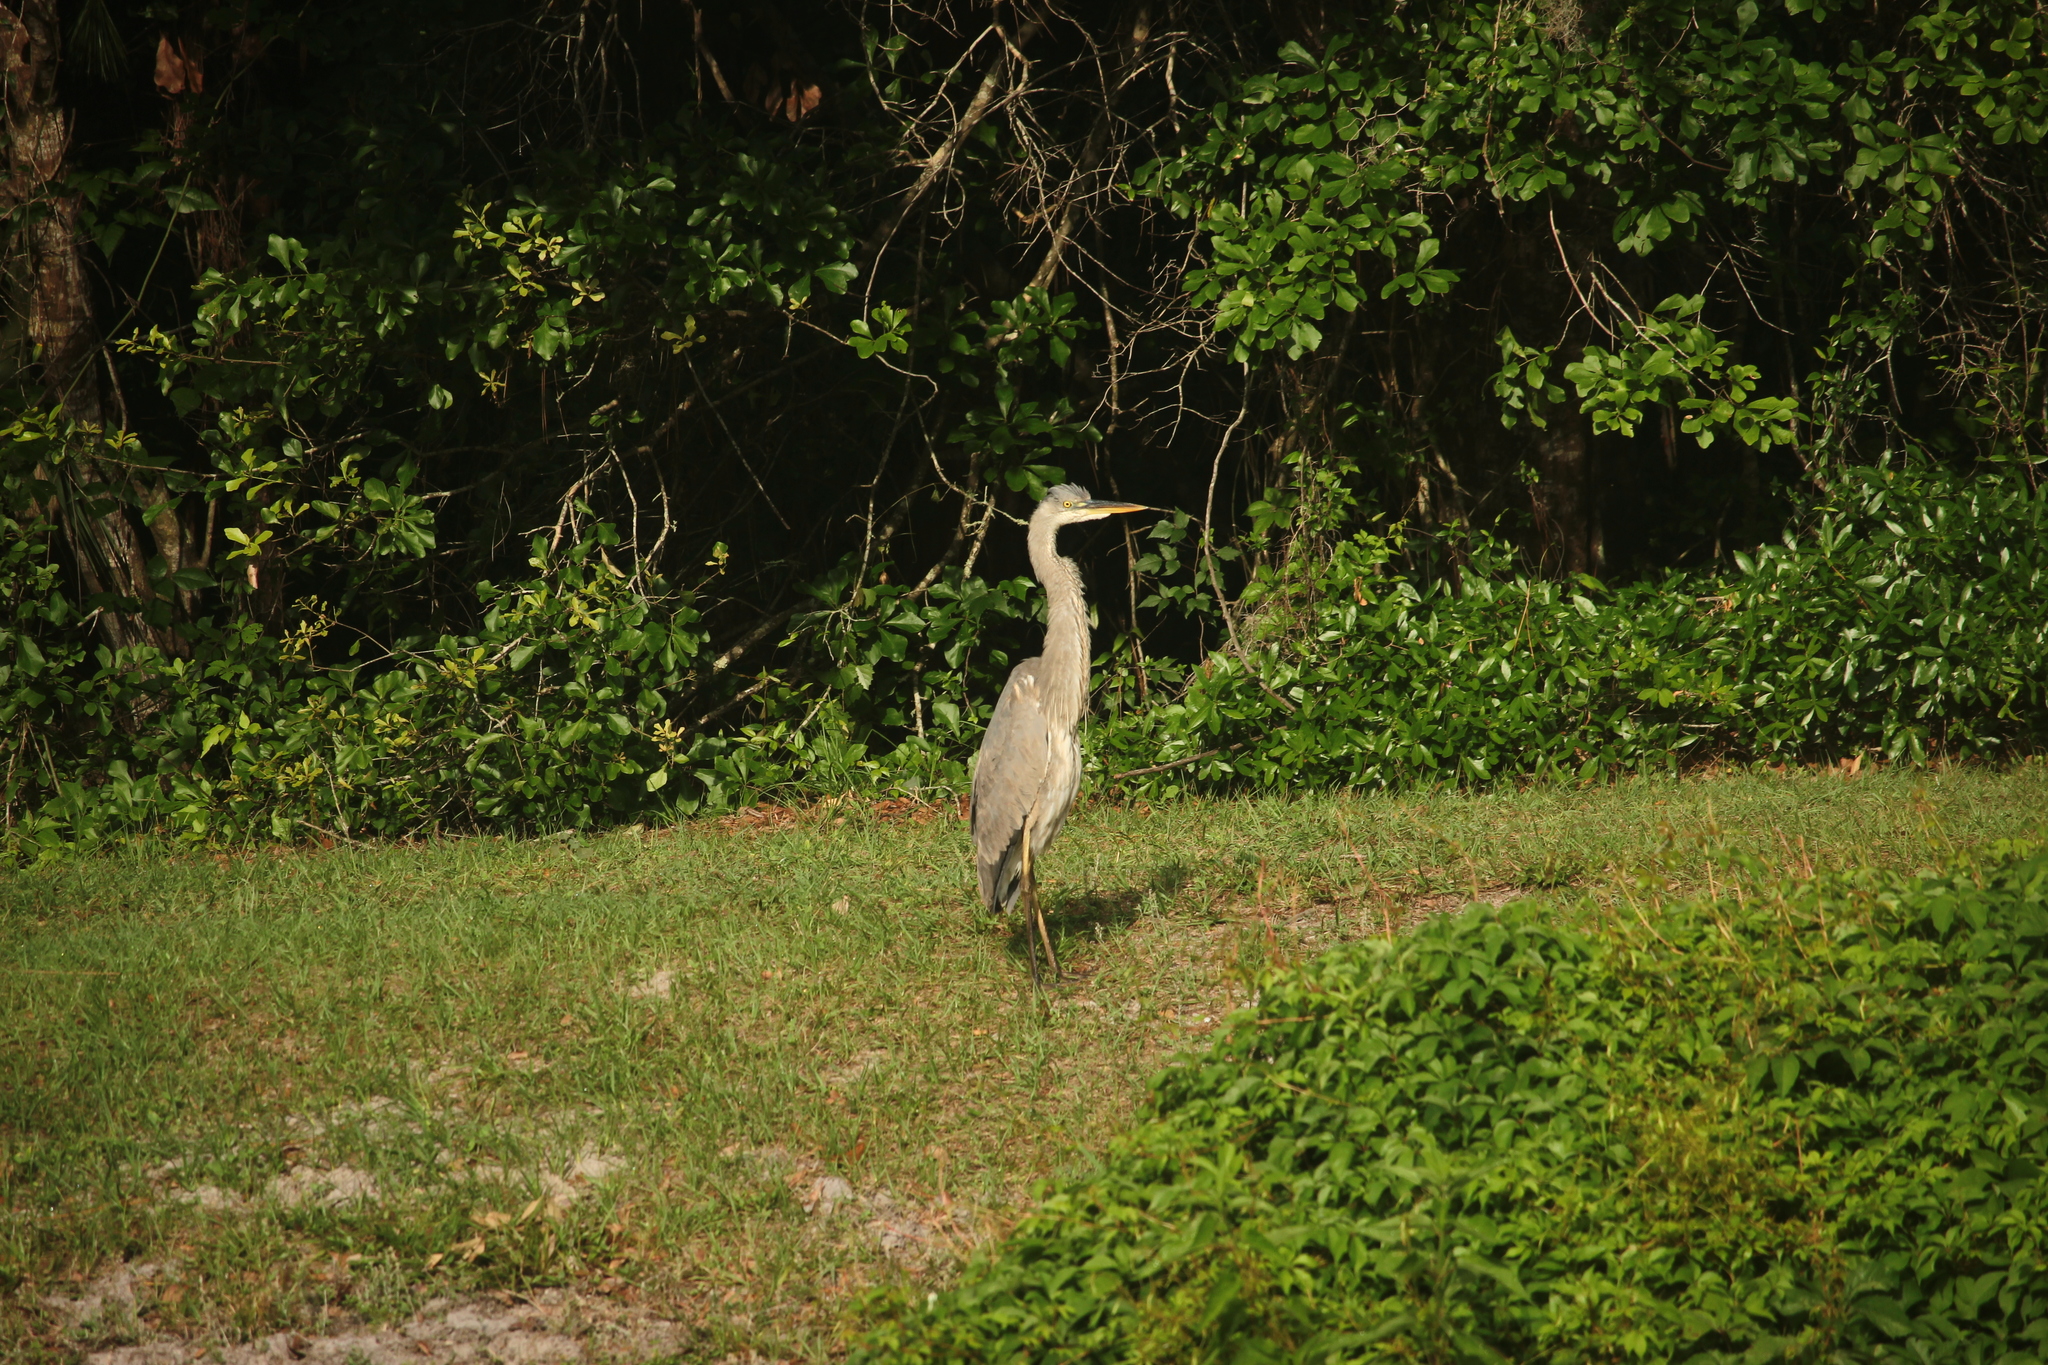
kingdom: Animalia
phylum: Chordata
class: Aves
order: Pelecaniformes
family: Ardeidae
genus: Ardea
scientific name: Ardea herodias
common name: Great blue heron
